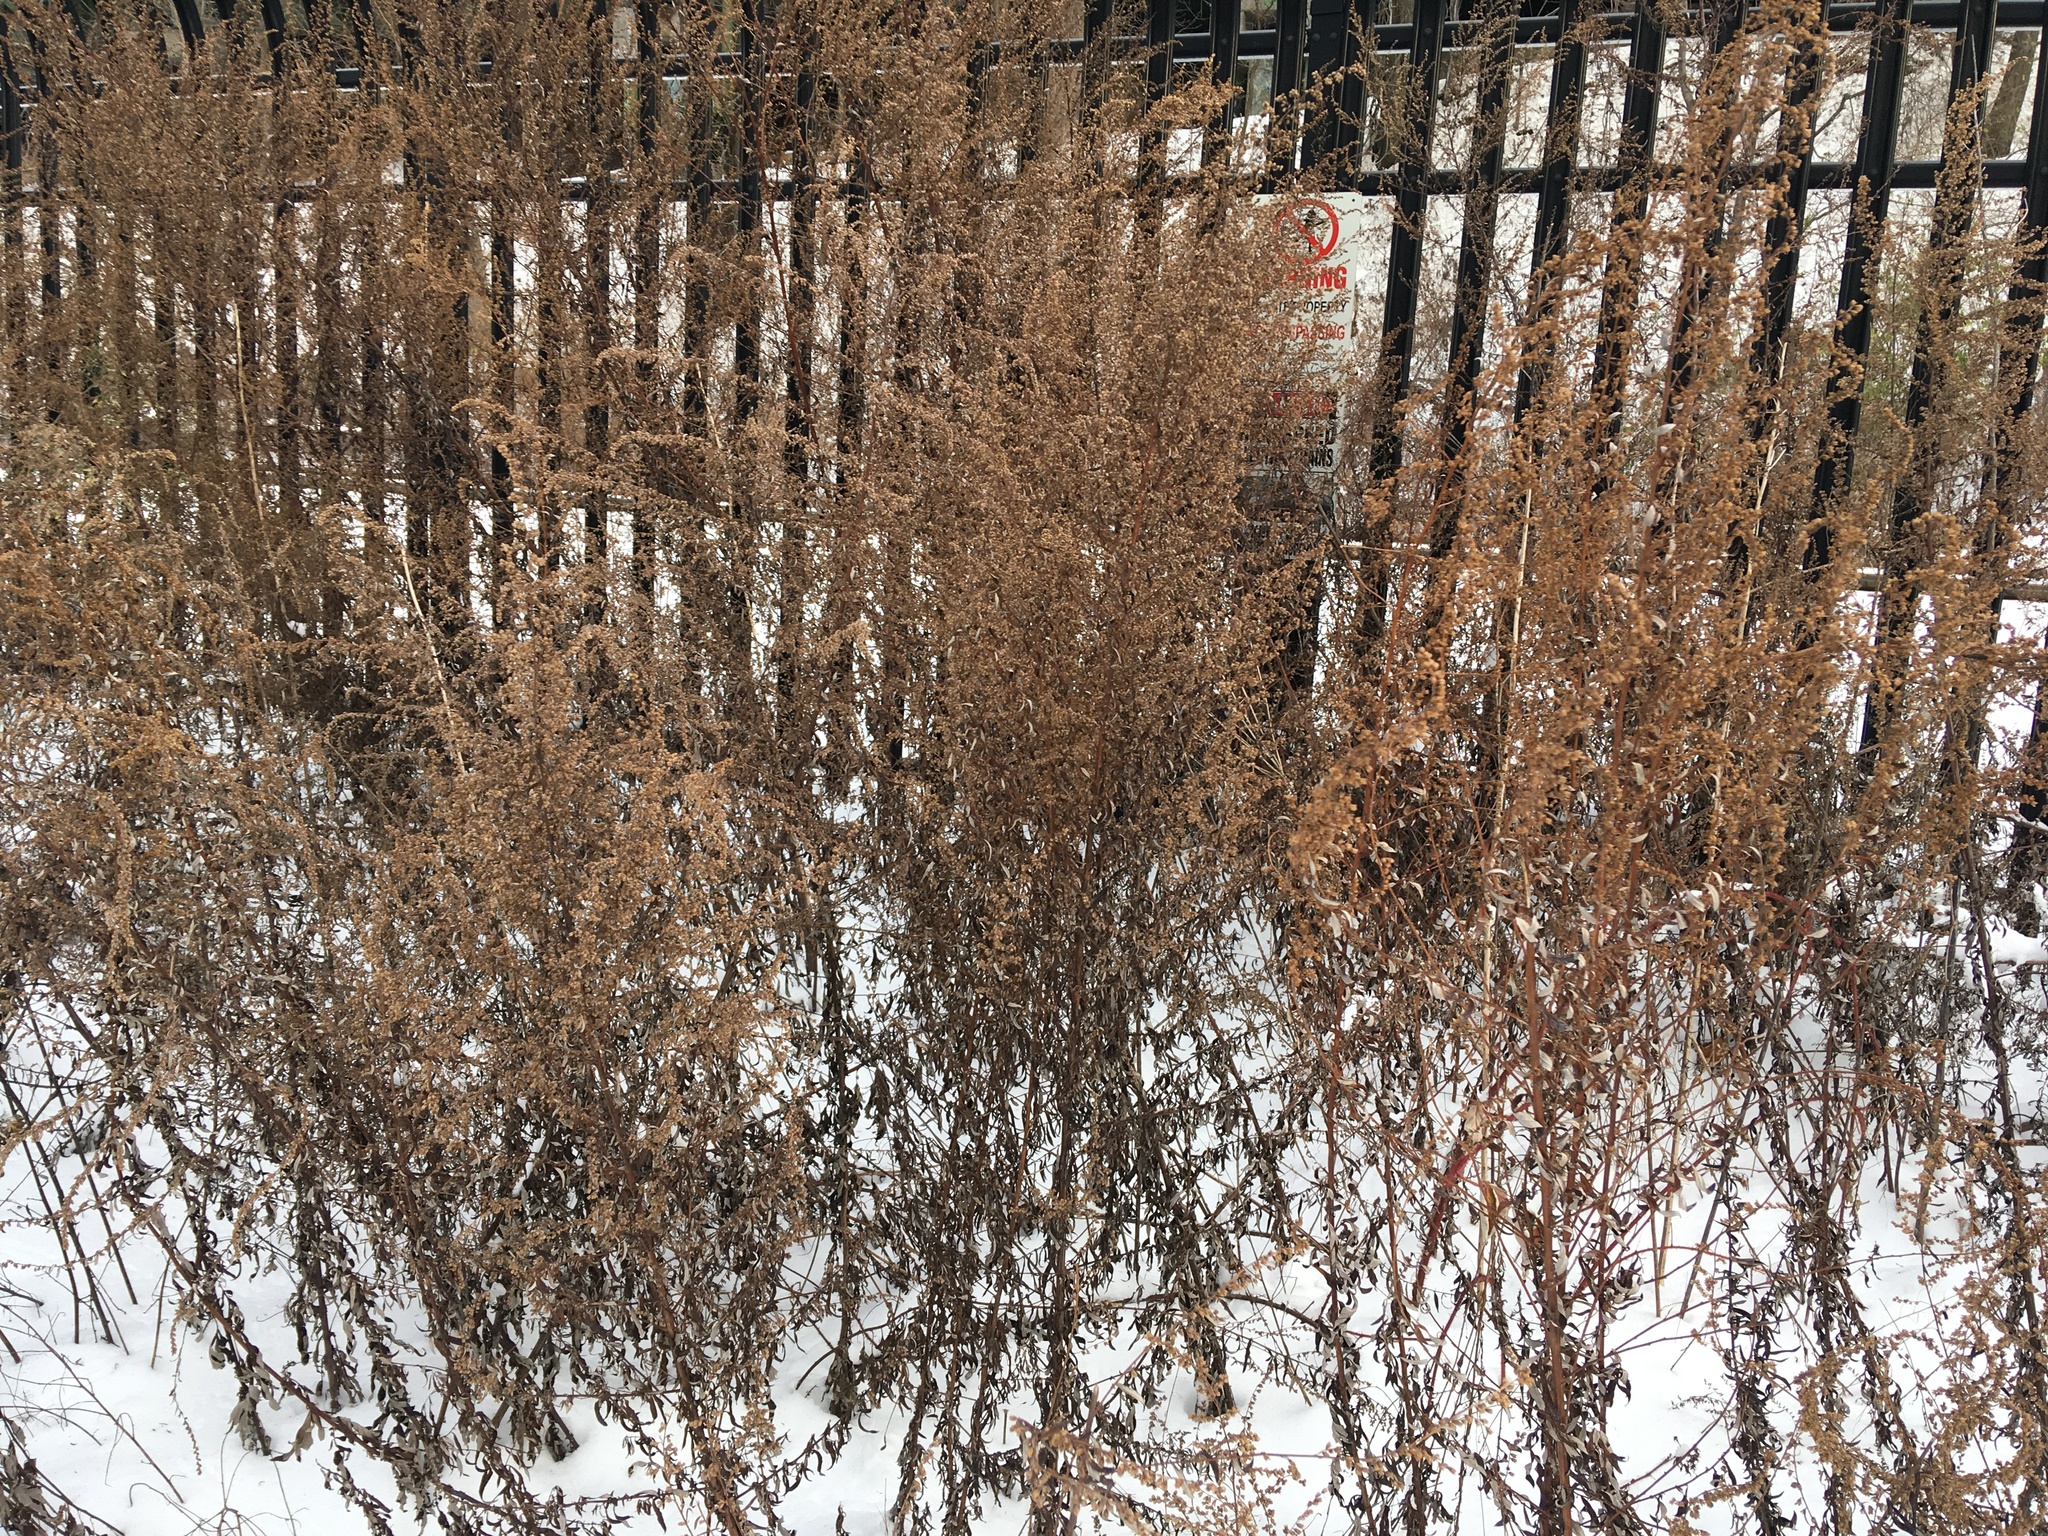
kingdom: Plantae
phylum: Tracheophyta
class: Magnoliopsida
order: Asterales
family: Asteraceae
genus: Artemisia
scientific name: Artemisia vulgaris
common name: Mugwort
